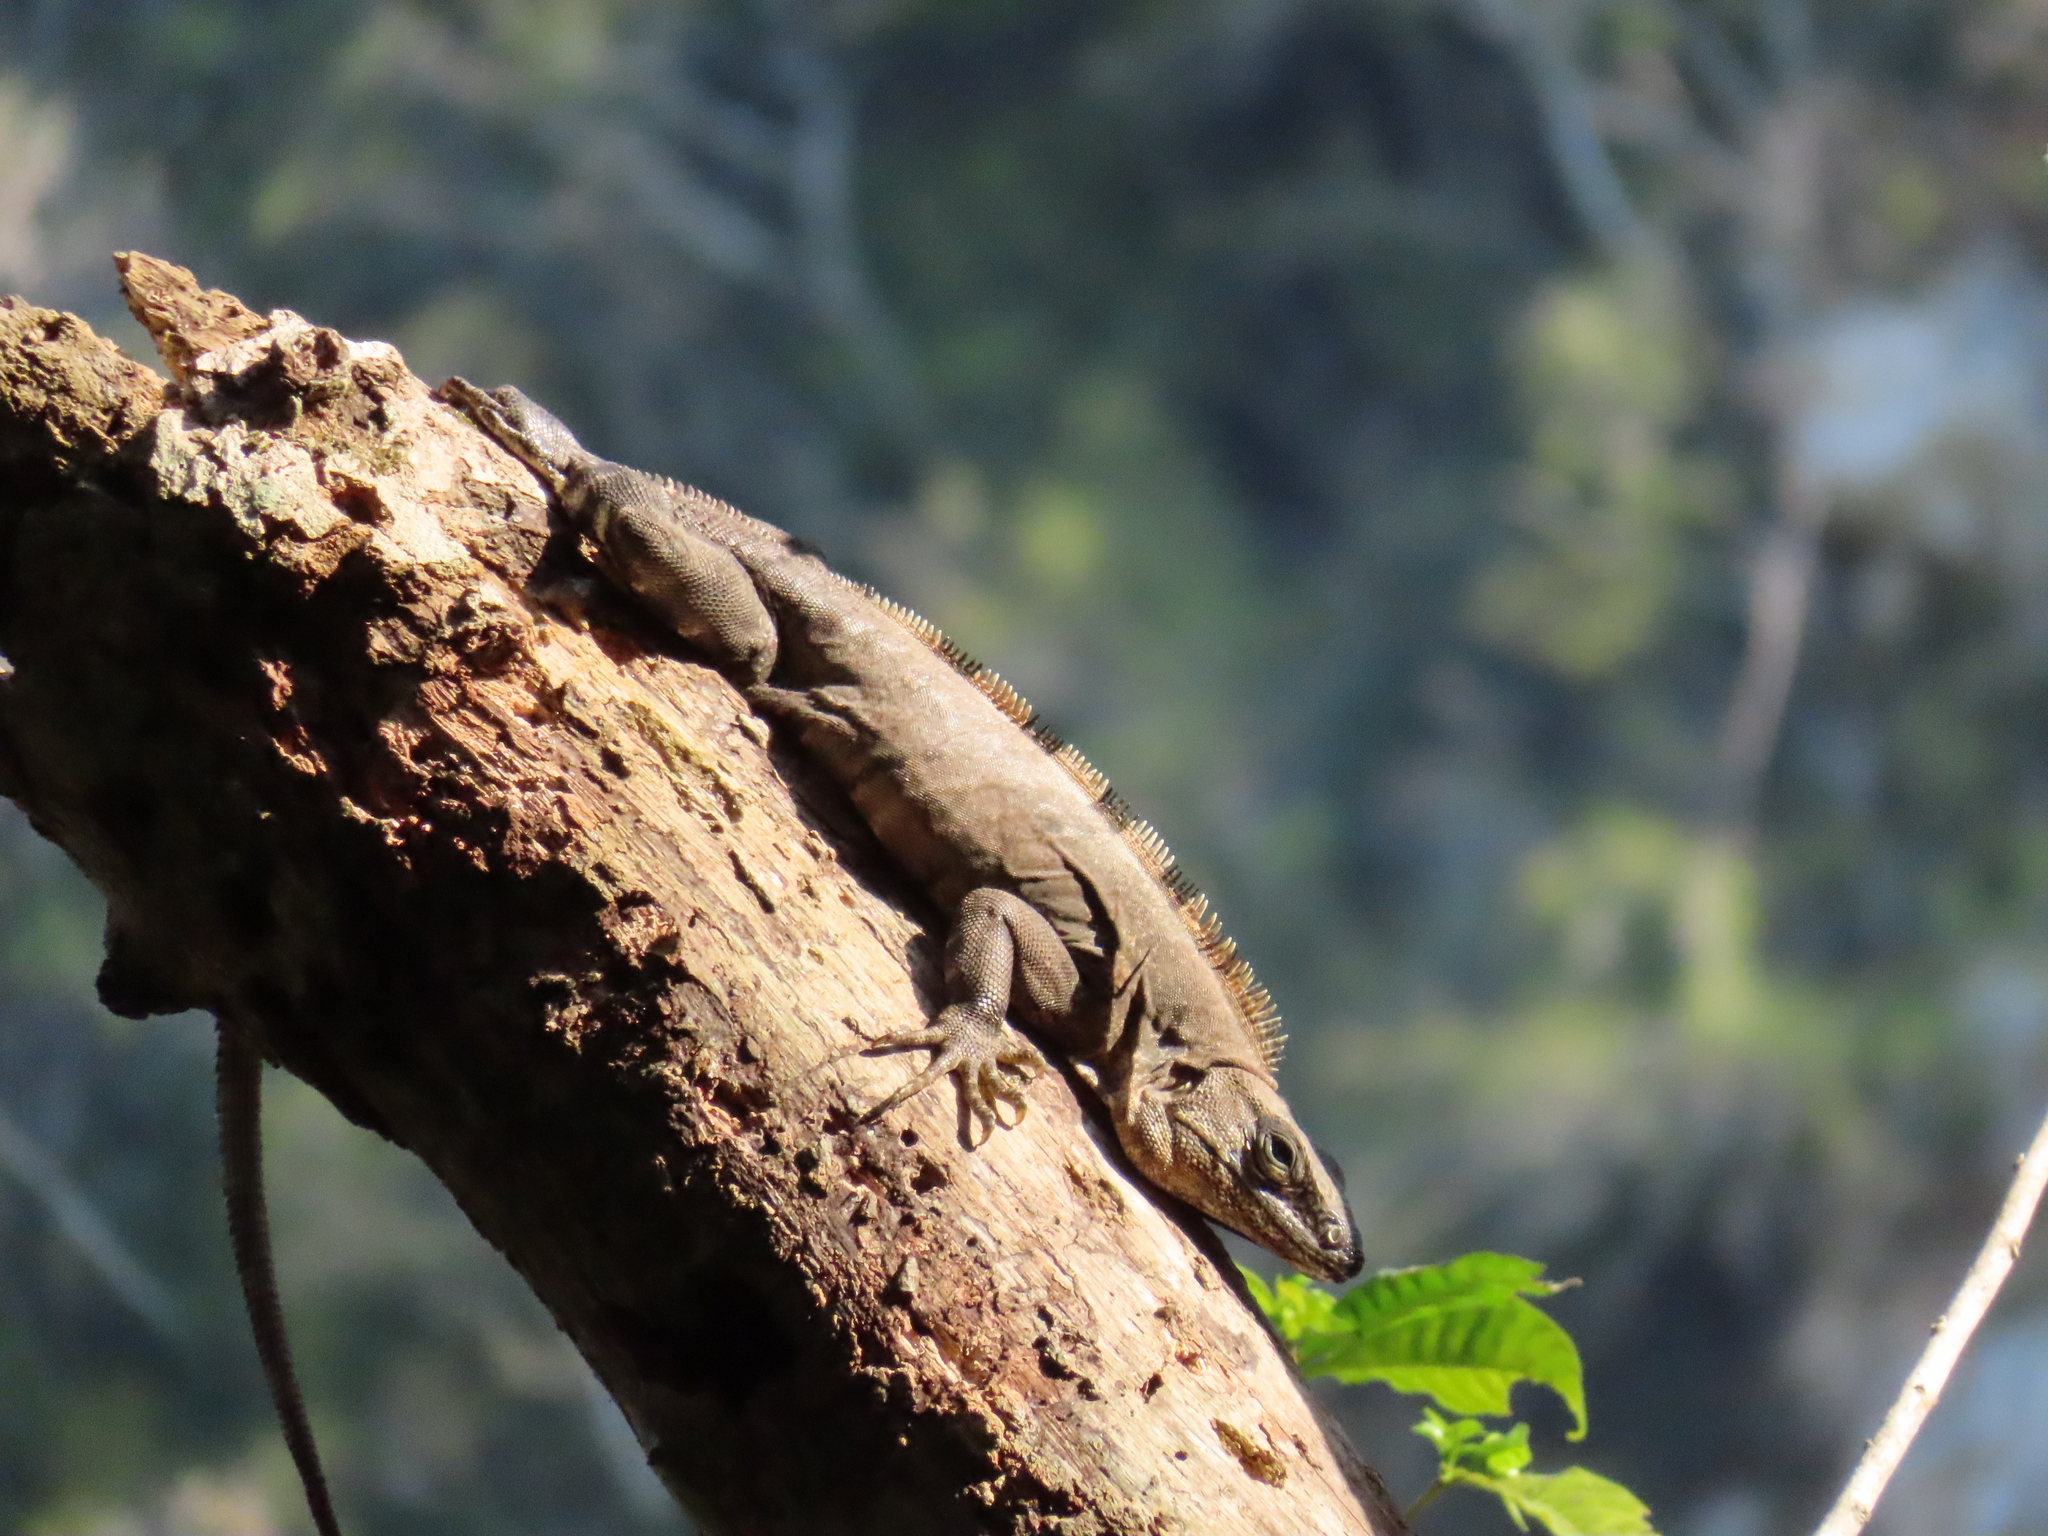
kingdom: Animalia
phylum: Chordata
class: Squamata
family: Iguanidae
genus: Ctenosaura
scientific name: Ctenosaura similis
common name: Black spiny-tailed iguana
